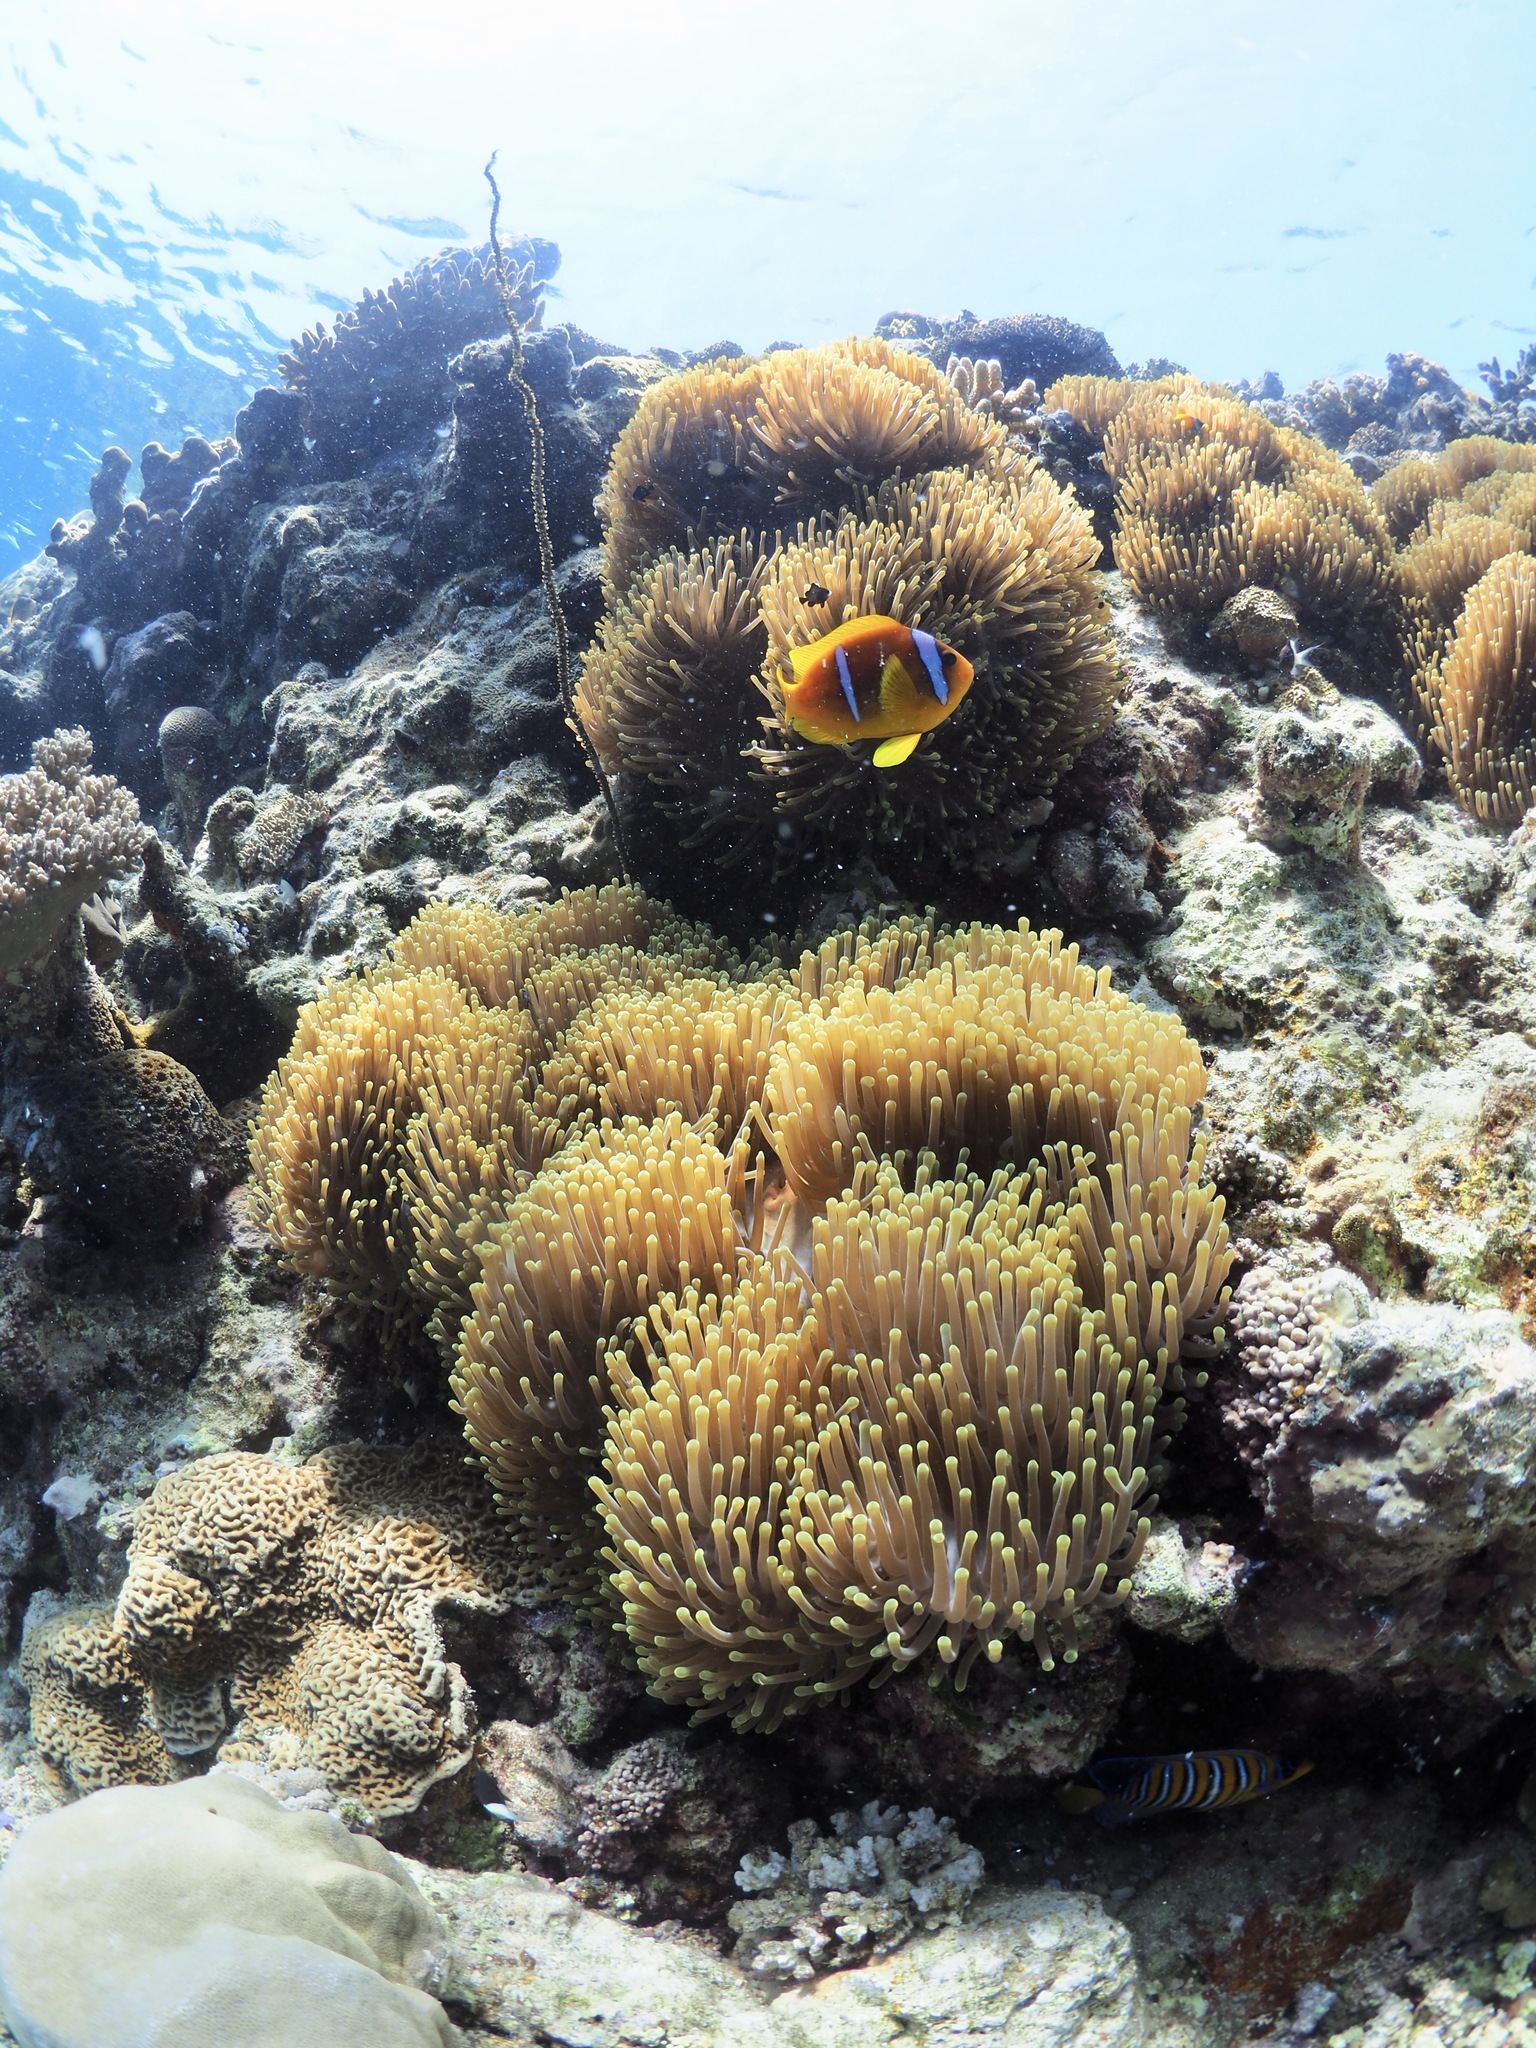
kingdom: Animalia
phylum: Chordata
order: Perciformes
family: Pomacentridae
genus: Amphiprion
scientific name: Amphiprion bicinctus
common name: Two-banded anemonefish
